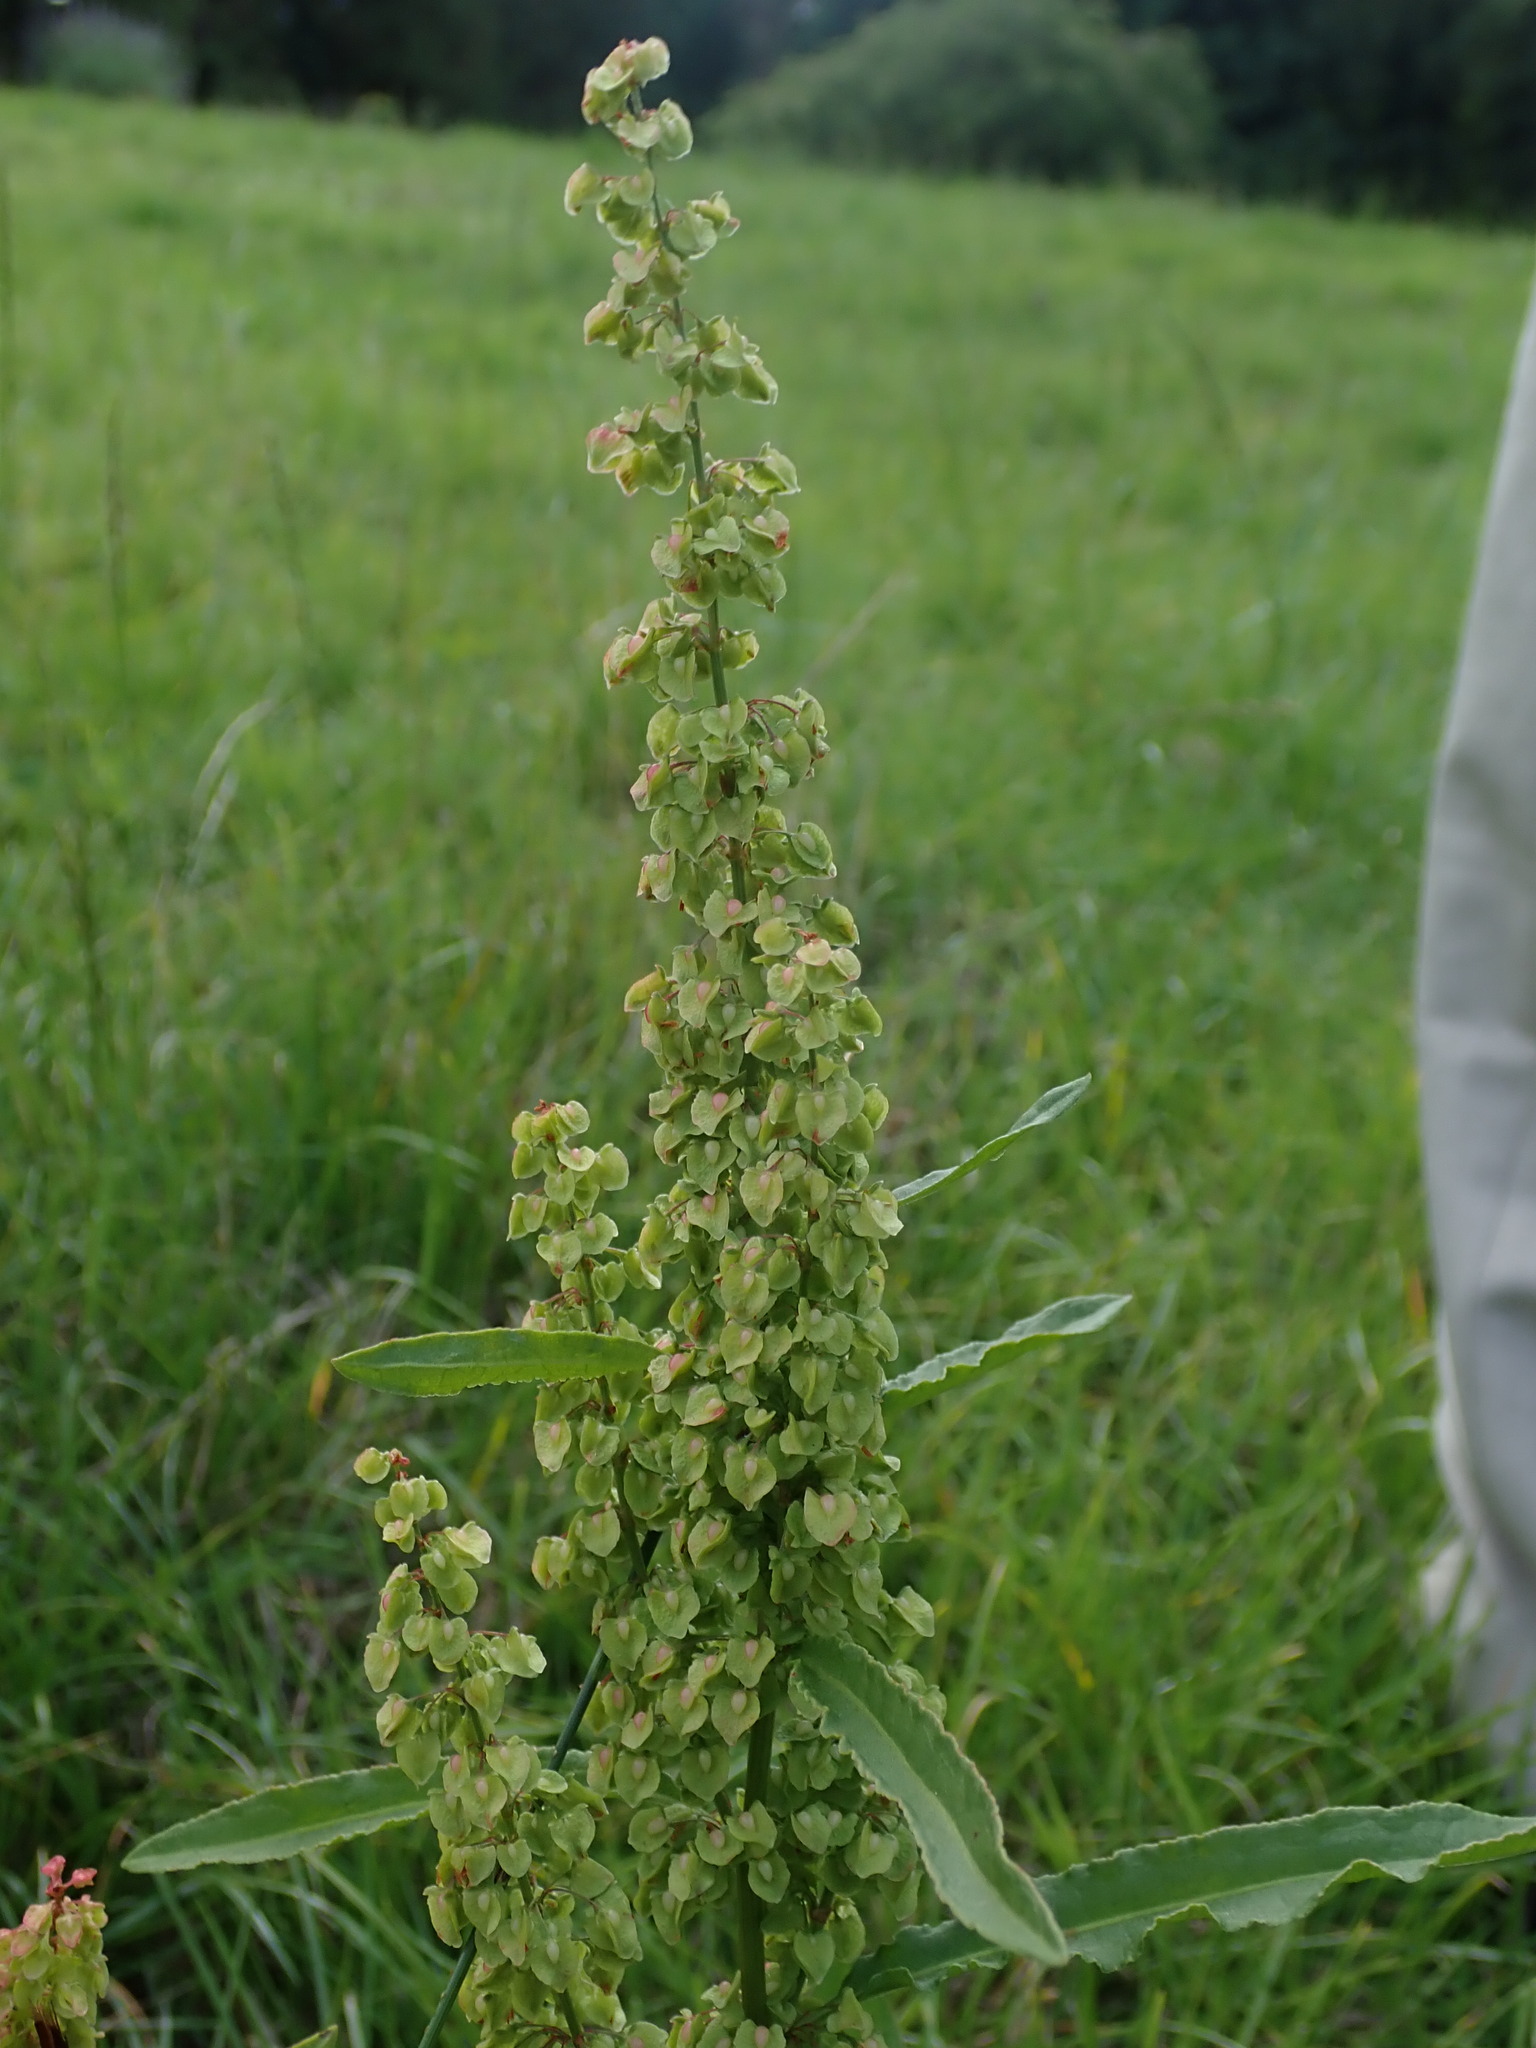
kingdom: Plantae
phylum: Tracheophyta
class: Magnoliopsida
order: Caryophyllales
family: Polygonaceae
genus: Rumex
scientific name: Rumex crispus
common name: Curled dock
